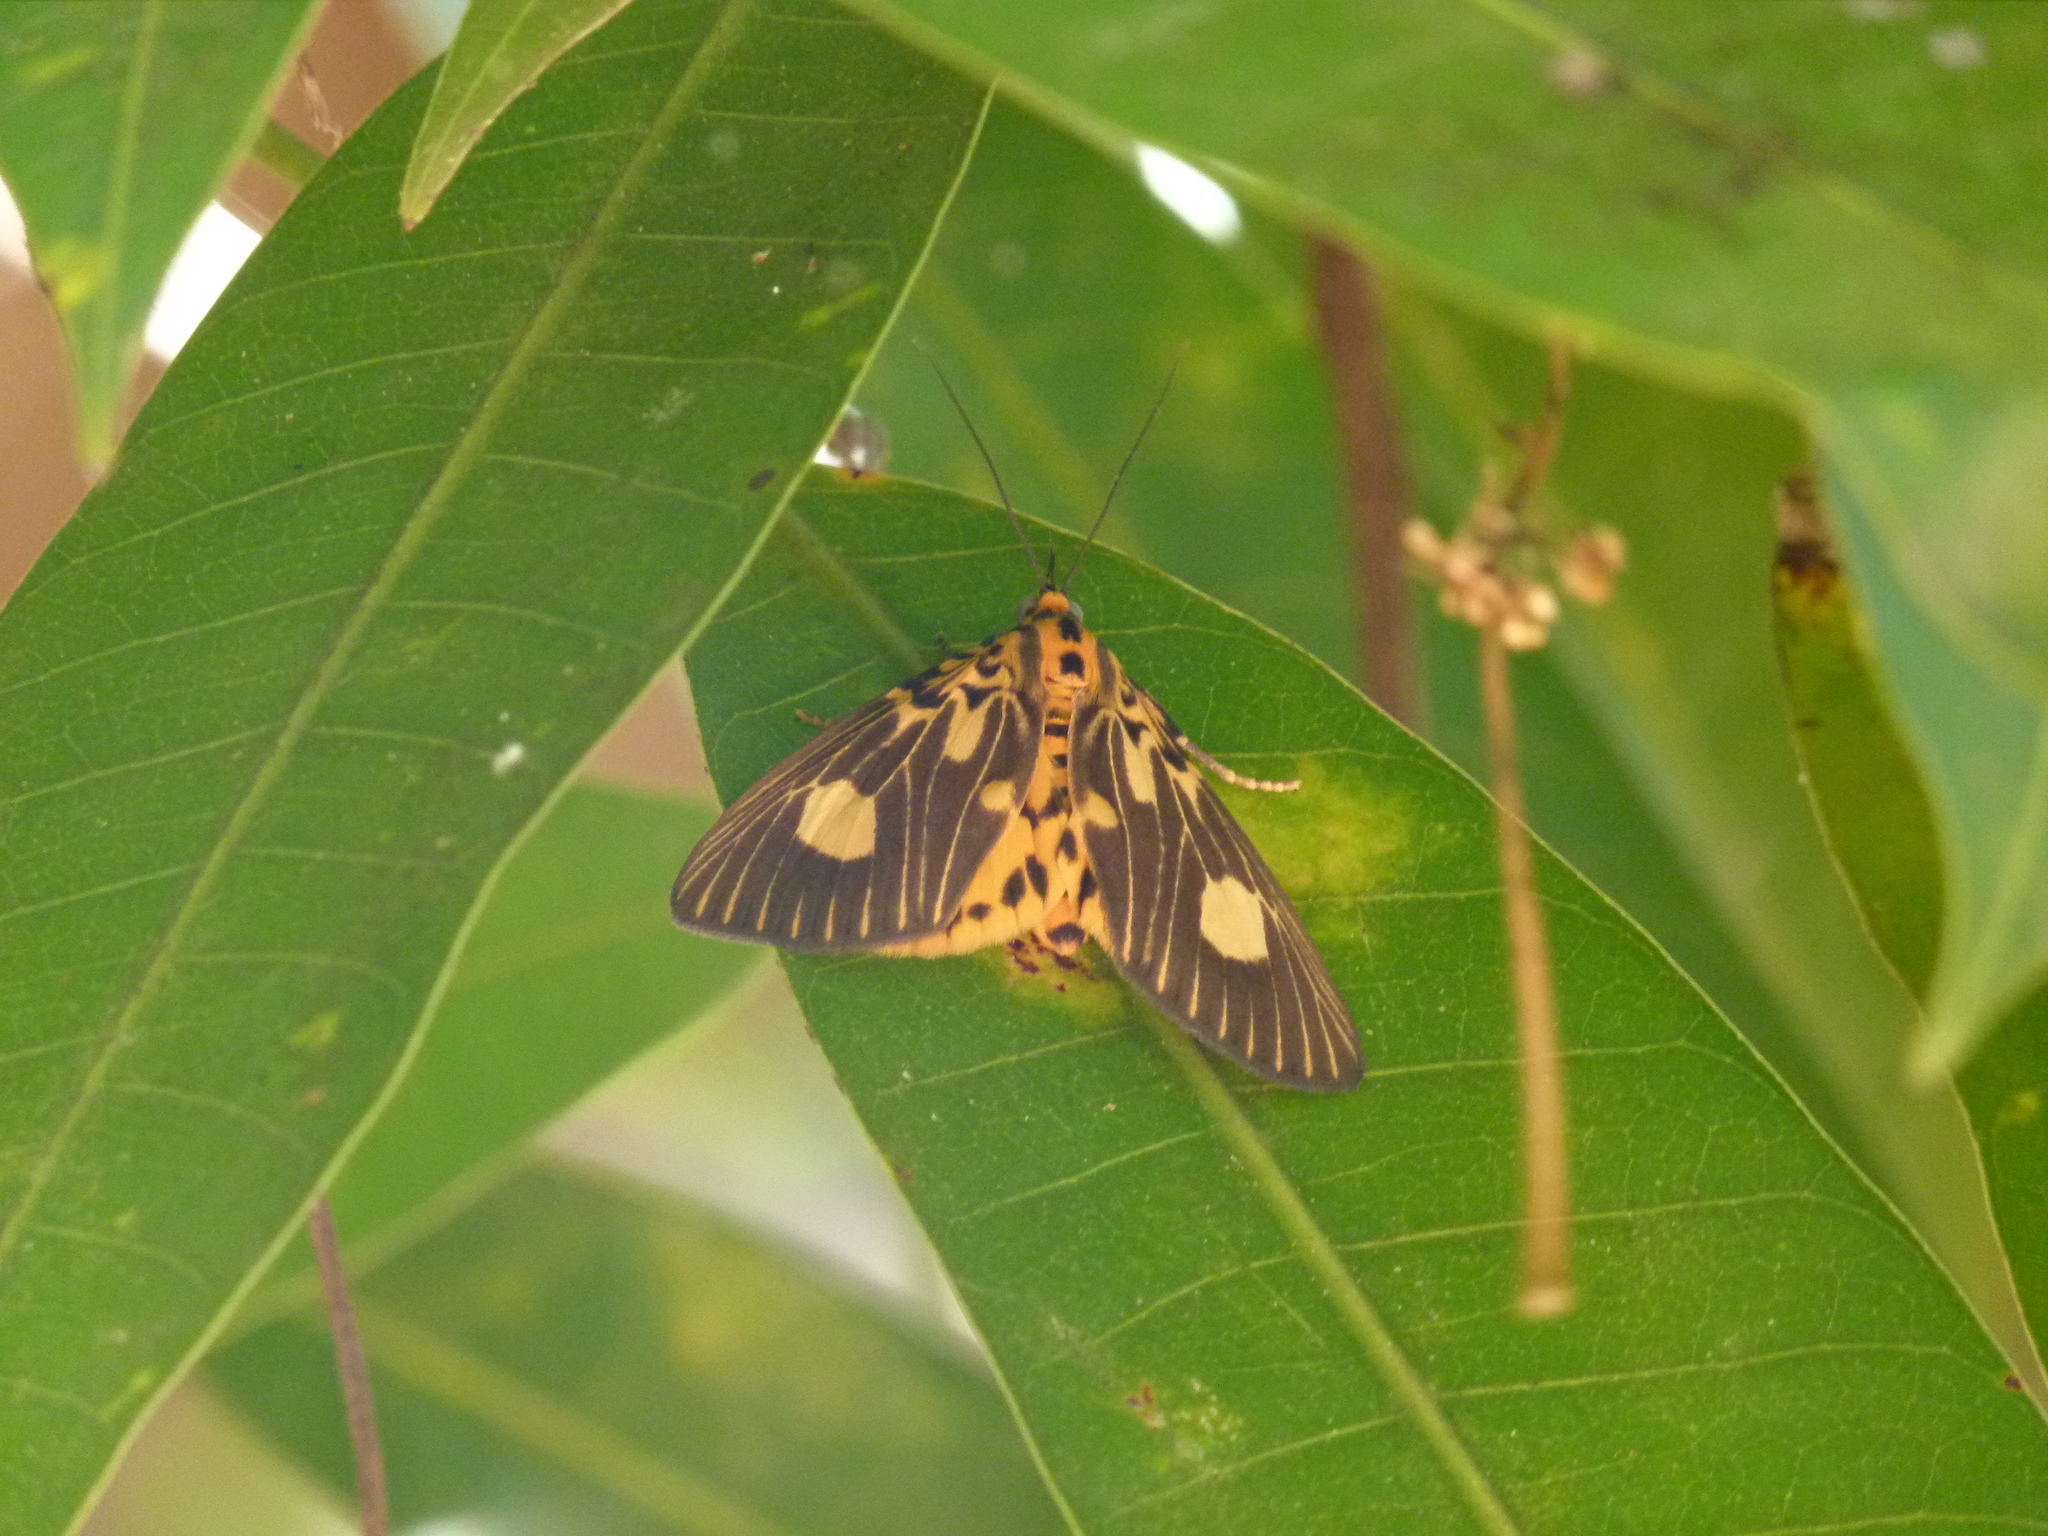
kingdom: Animalia
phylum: Arthropoda
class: Insecta
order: Lepidoptera
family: Erebidae
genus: Asota
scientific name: Asota plagiata
